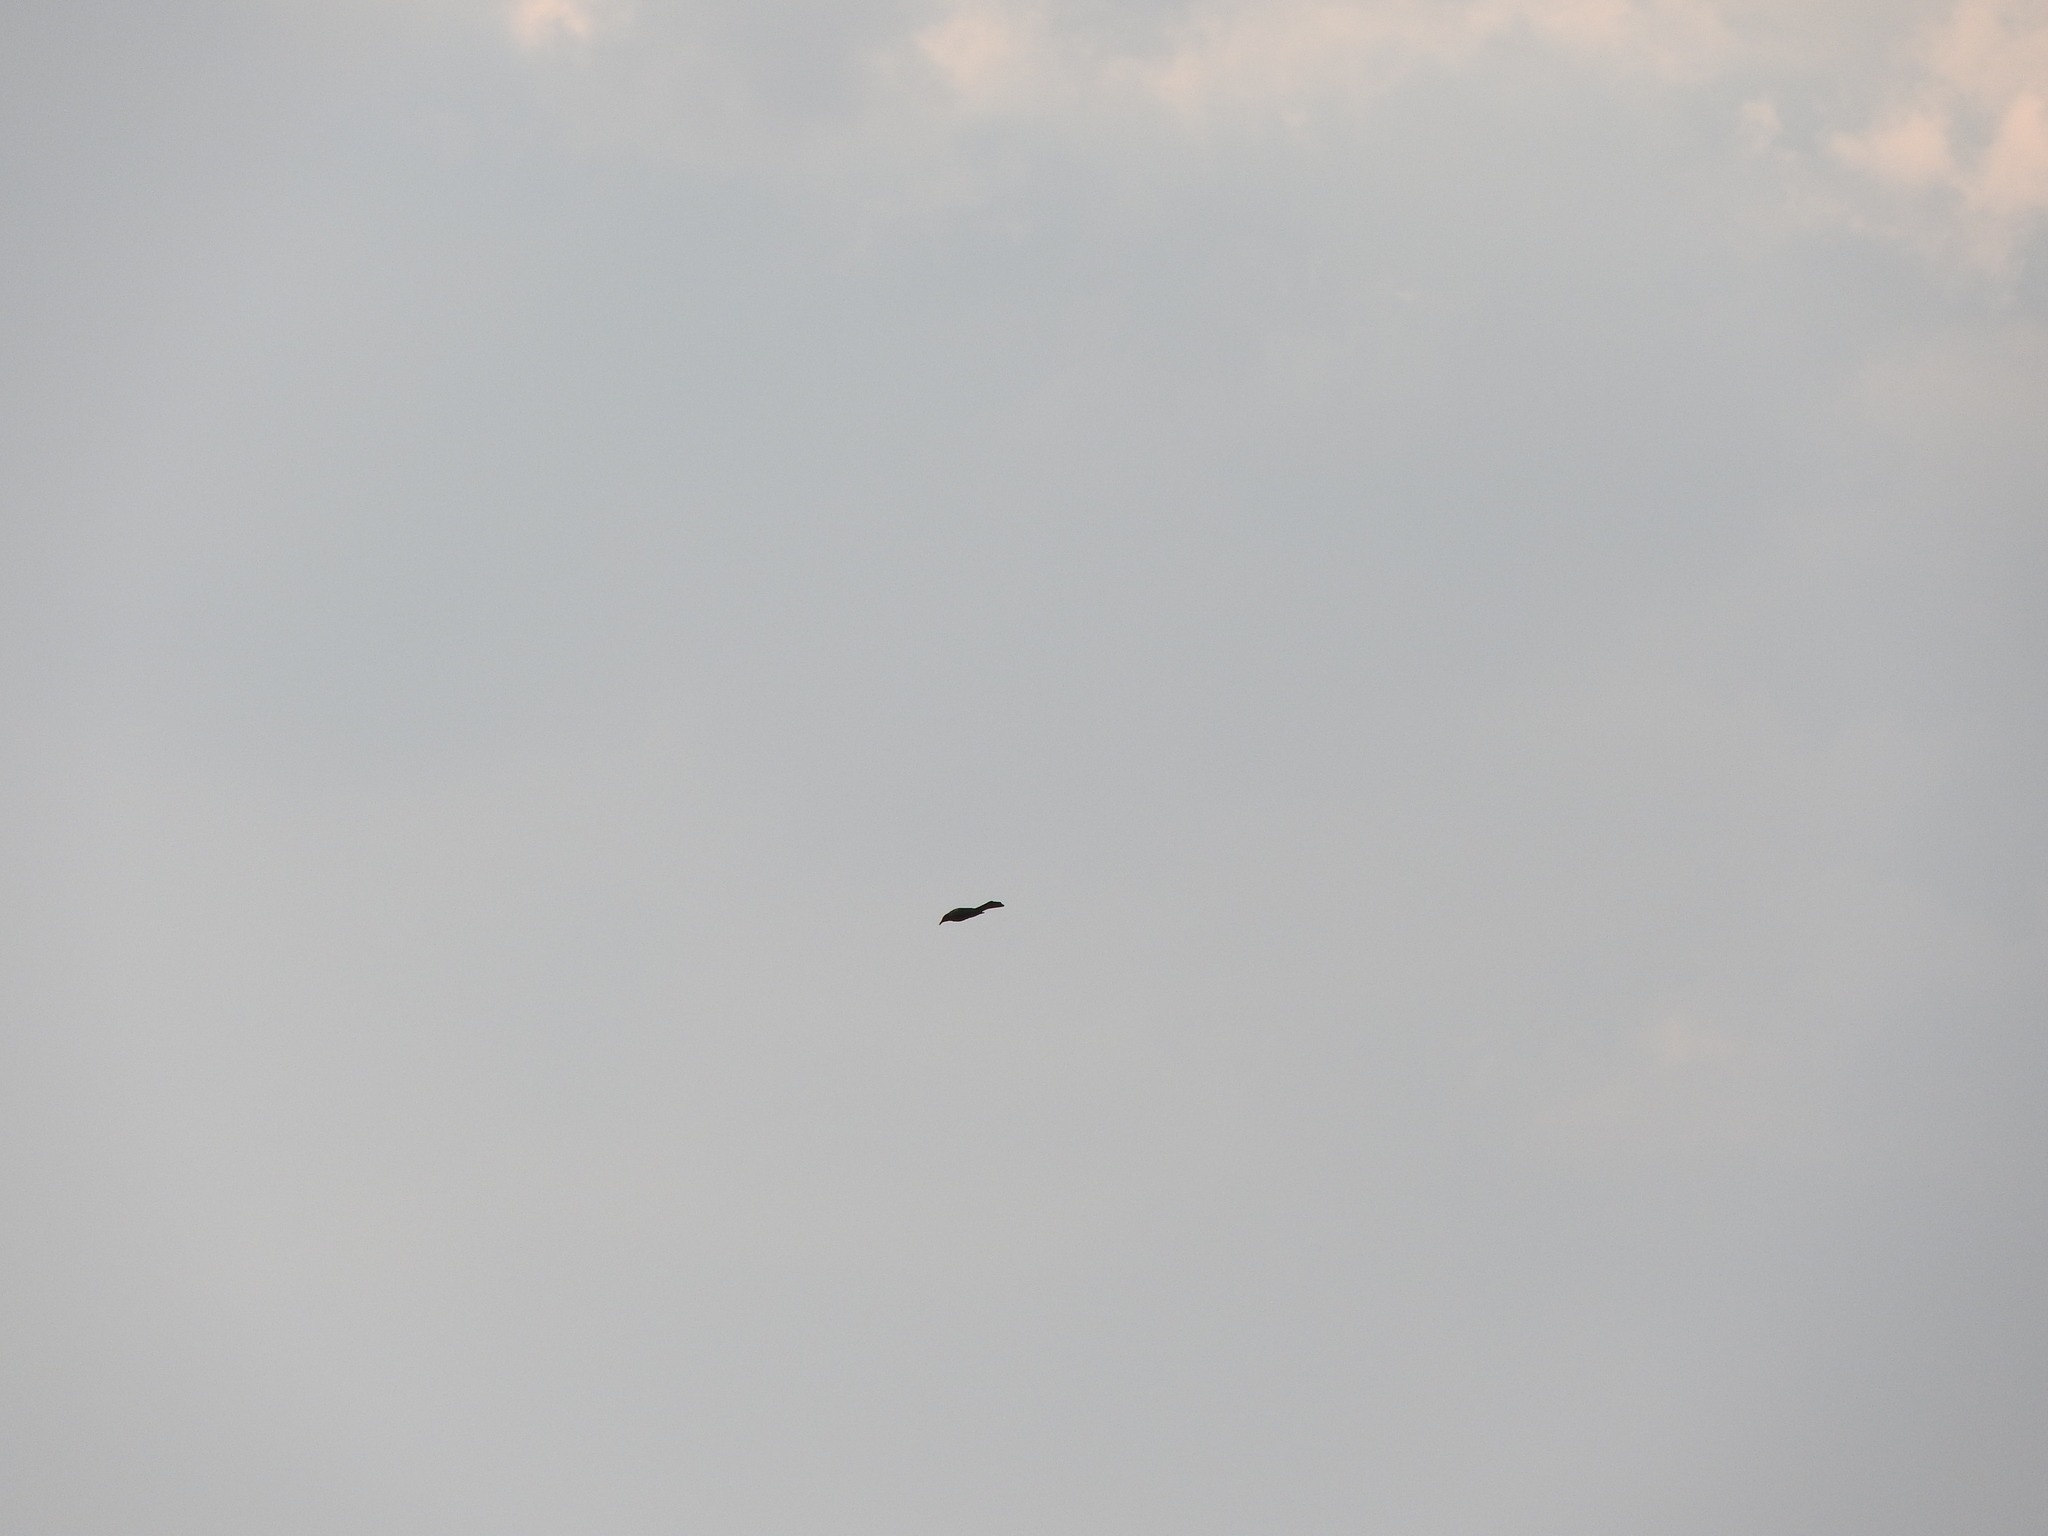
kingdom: Animalia
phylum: Chordata
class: Aves
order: Passeriformes
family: Icteridae
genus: Quiscalus
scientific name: Quiscalus mexicanus
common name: Great-tailed grackle
